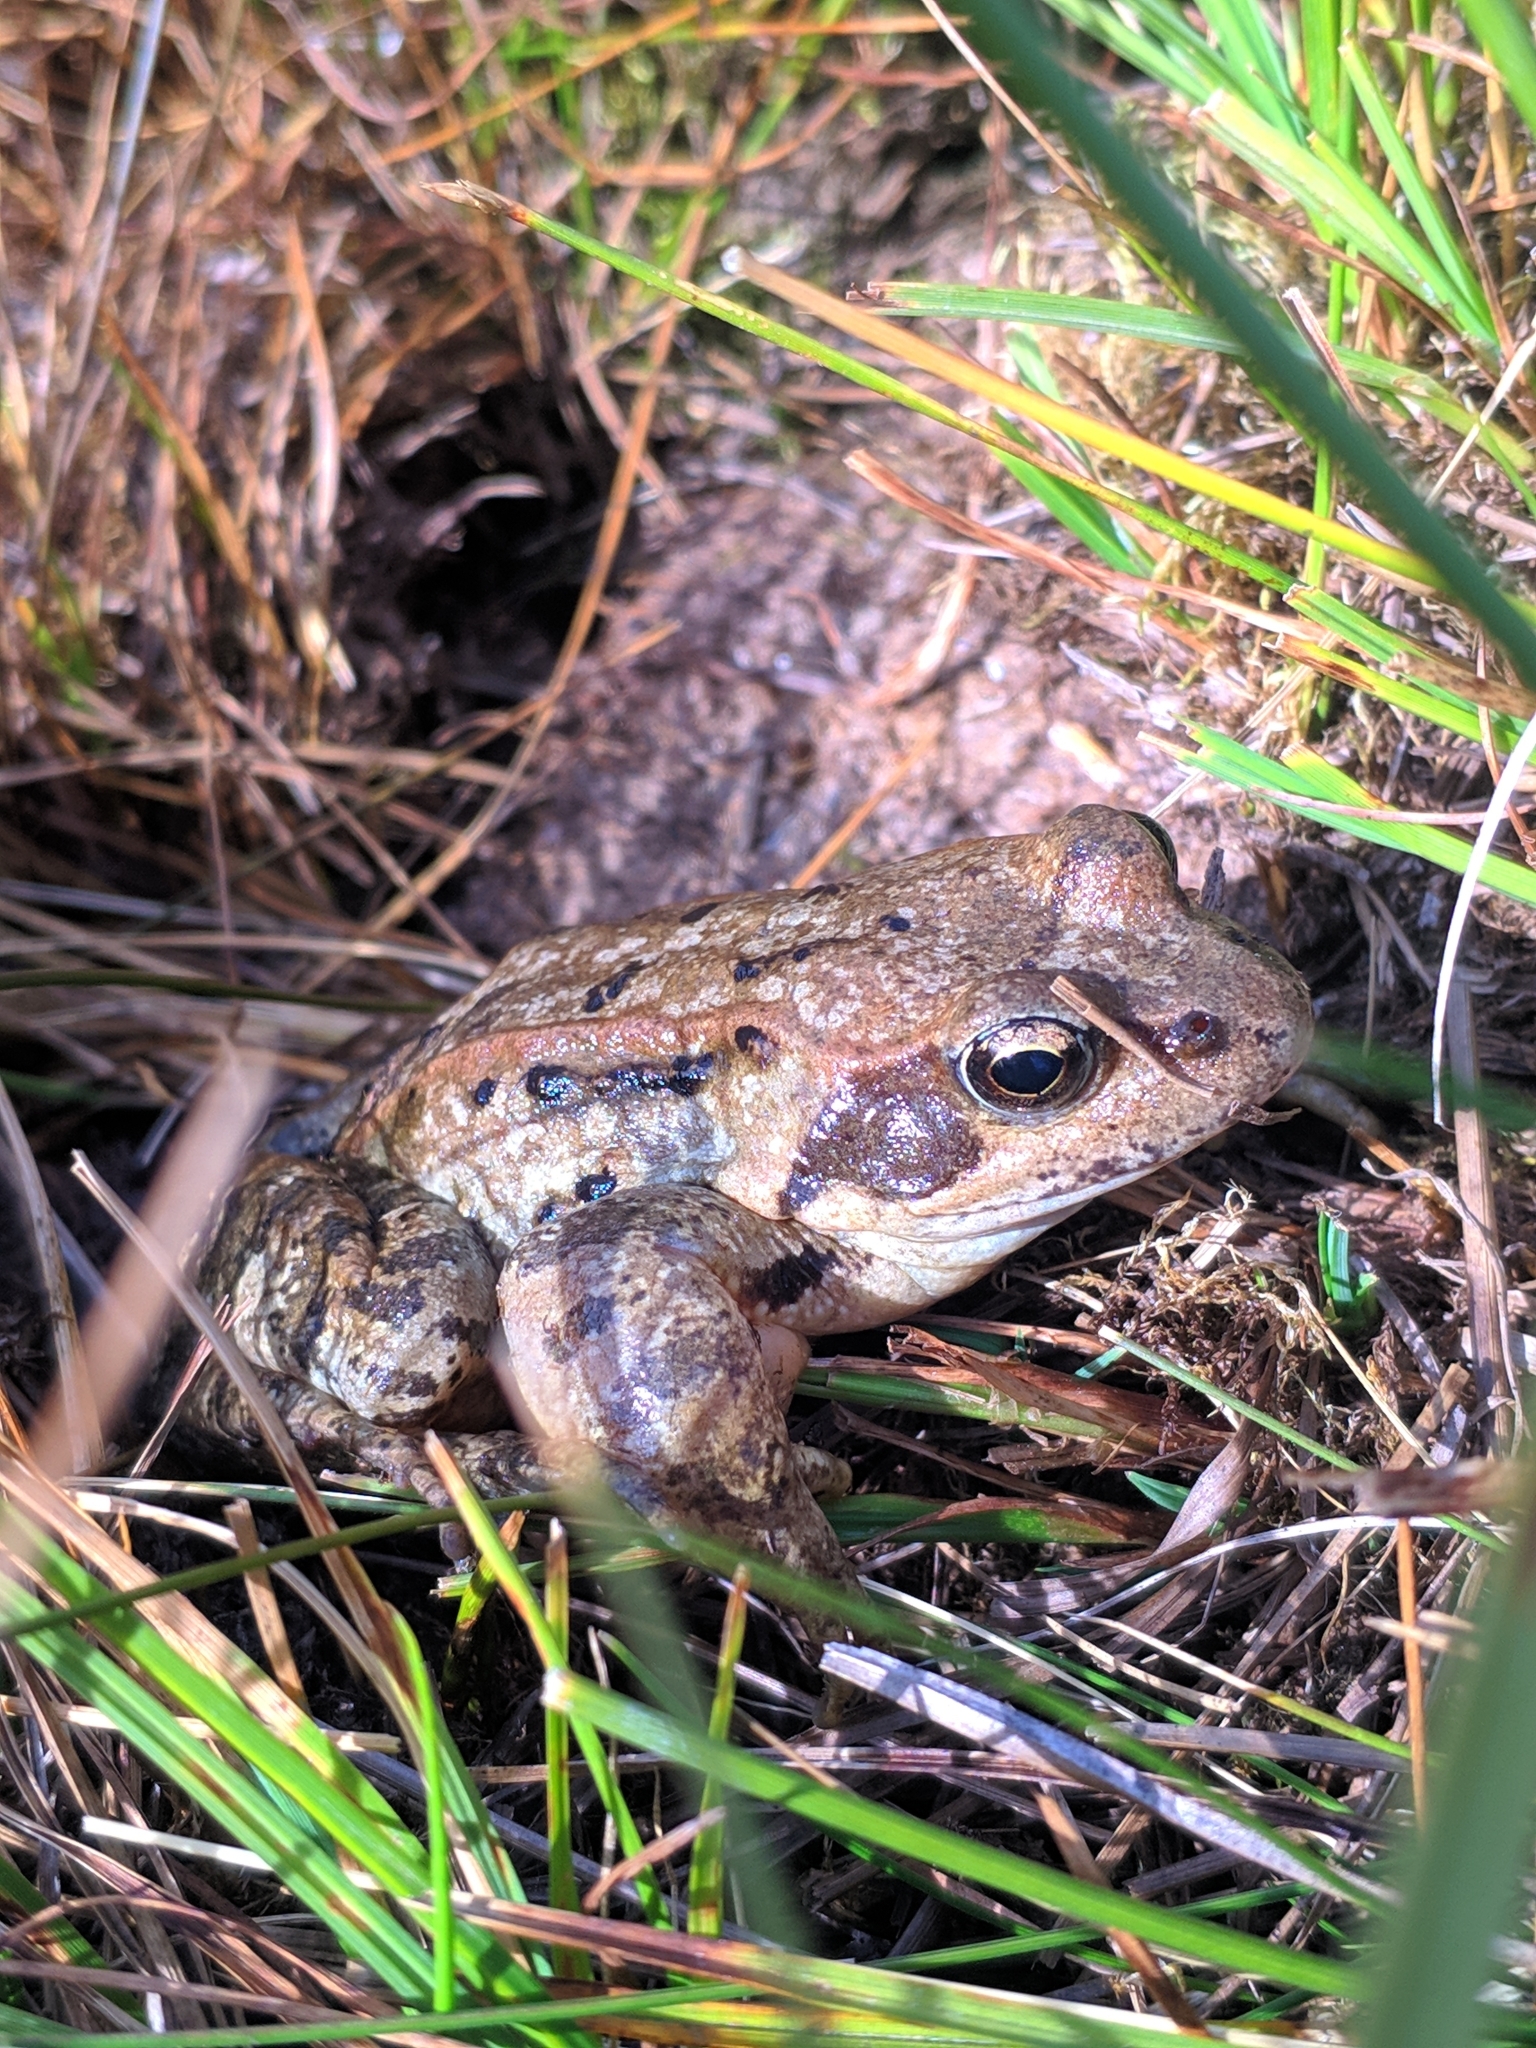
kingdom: Animalia
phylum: Chordata
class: Amphibia
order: Anura
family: Ranidae
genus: Rana
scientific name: Rana temporaria
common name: Common frog
